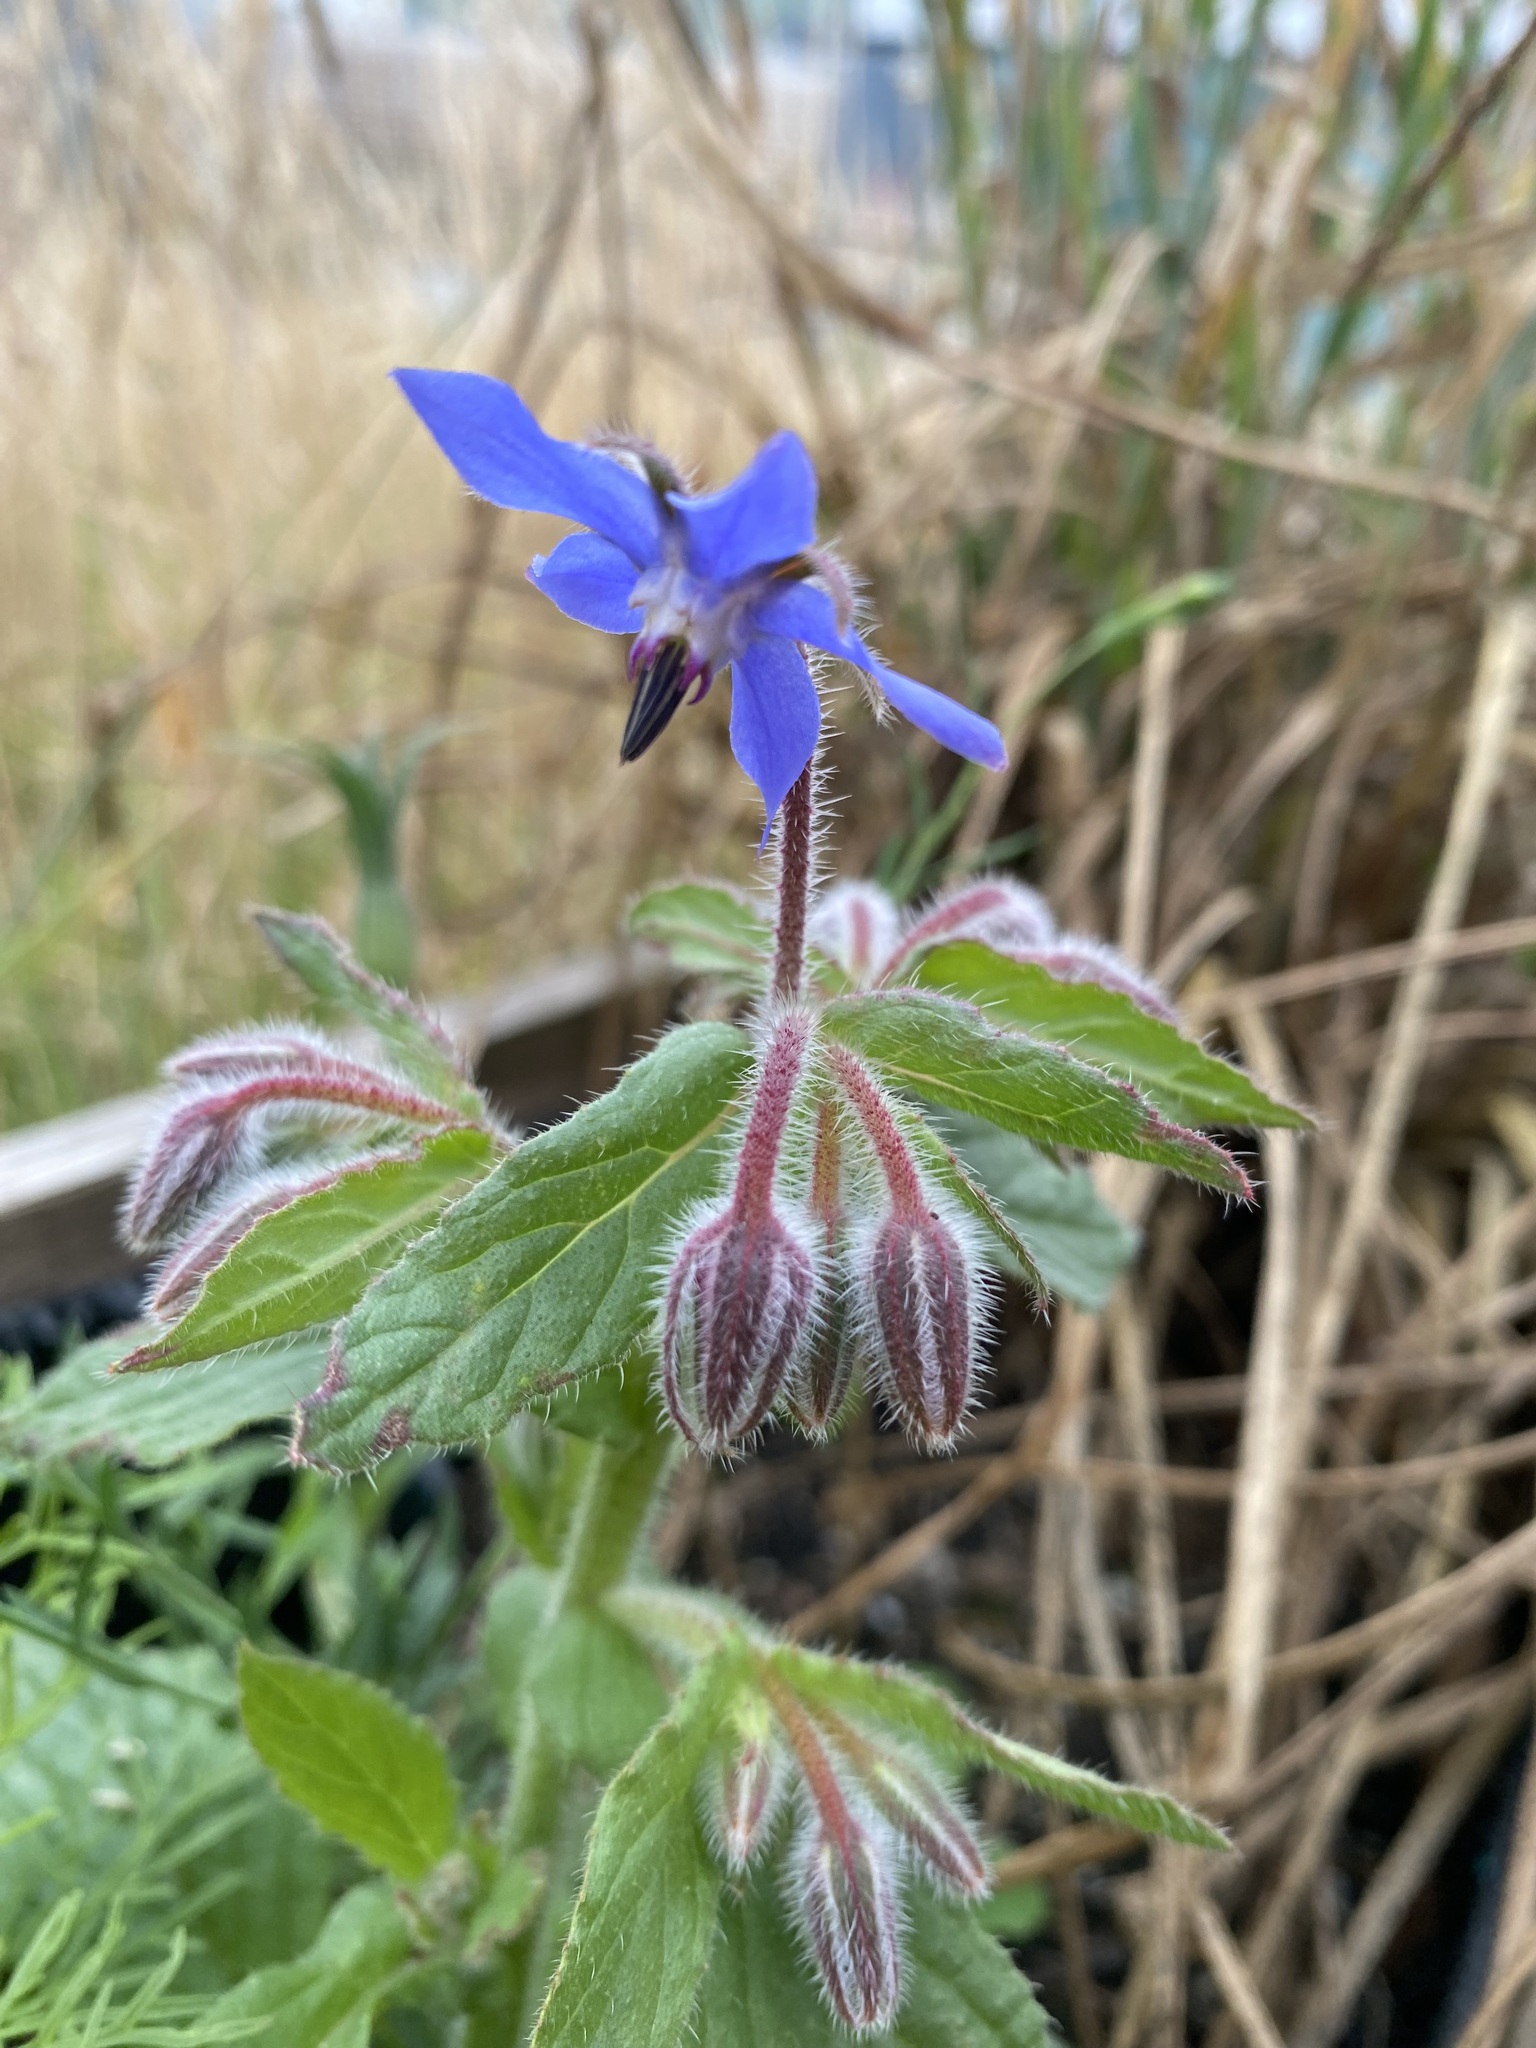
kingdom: Plantae
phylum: Tracheophyta
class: Magnoliopsida
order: Boraginales
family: Boraginaceae
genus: Borago
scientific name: Borago officinalis
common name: Borage
